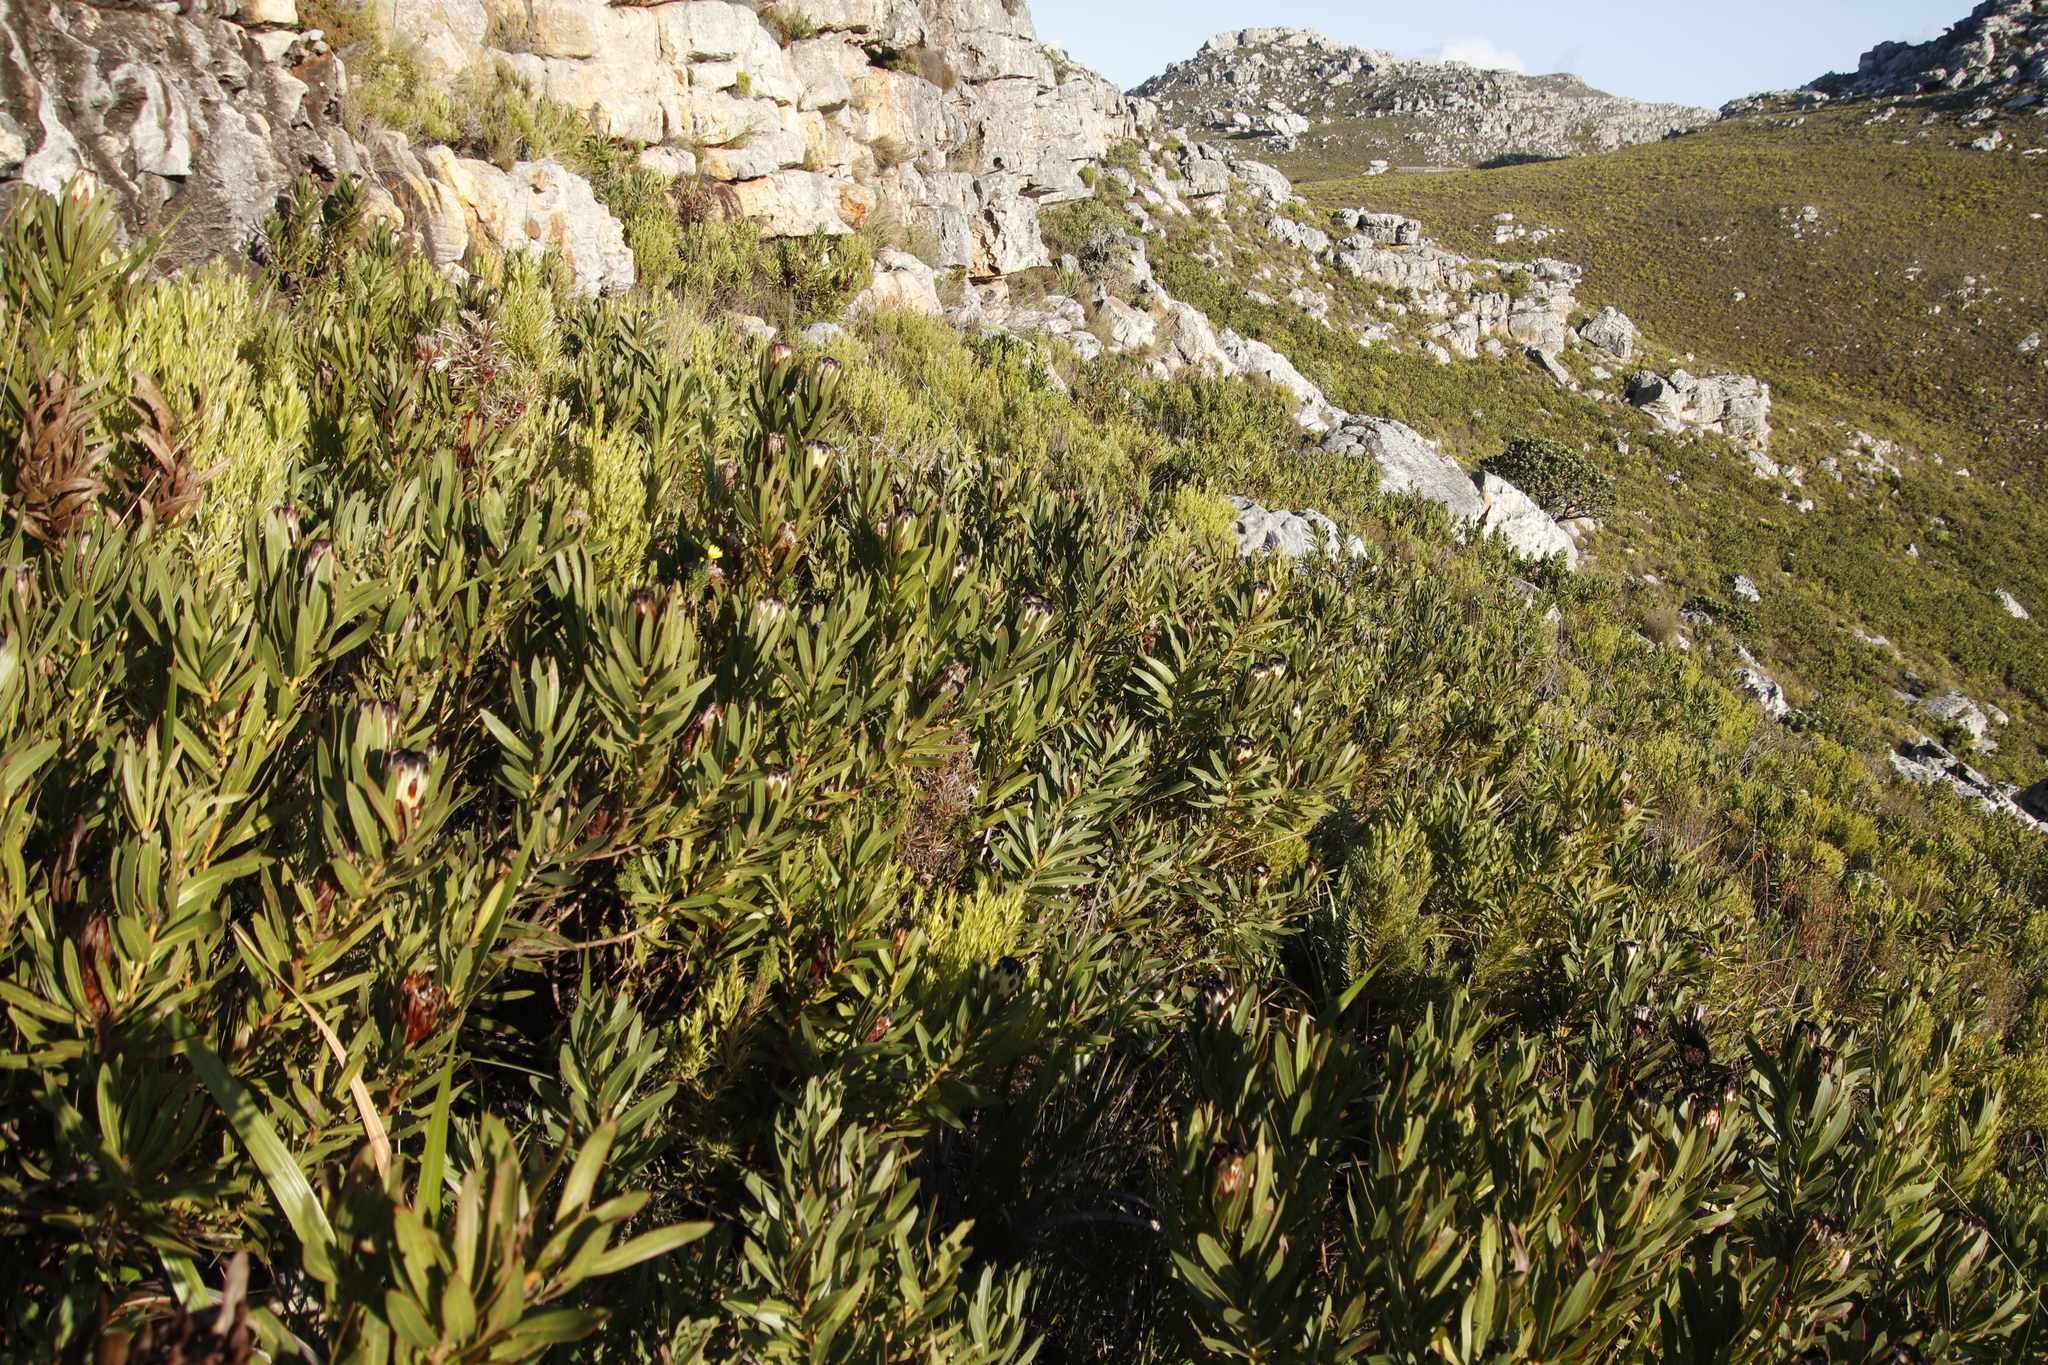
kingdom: Plantae
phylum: Tracheophyta
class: Magnoliopsida
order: Proteales
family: Proteaceae
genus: Protea
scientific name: Protea lepidocarpodendron
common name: Black-bearded protea
